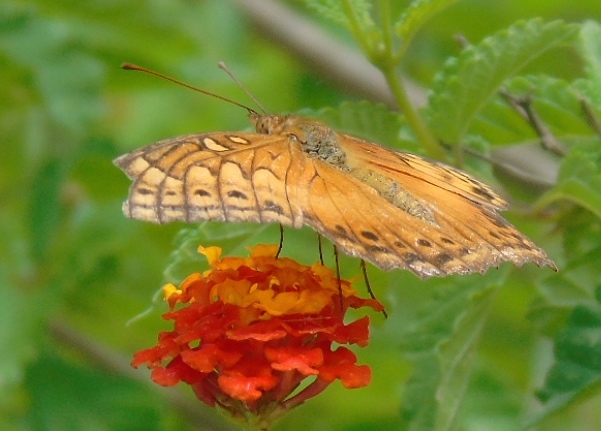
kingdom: Animalia
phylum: Arthropoda
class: Insecta
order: Lepidoptera
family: Nymphalidae
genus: Euptoieta
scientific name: Euptoieta hegesia
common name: Mexican fritillary
